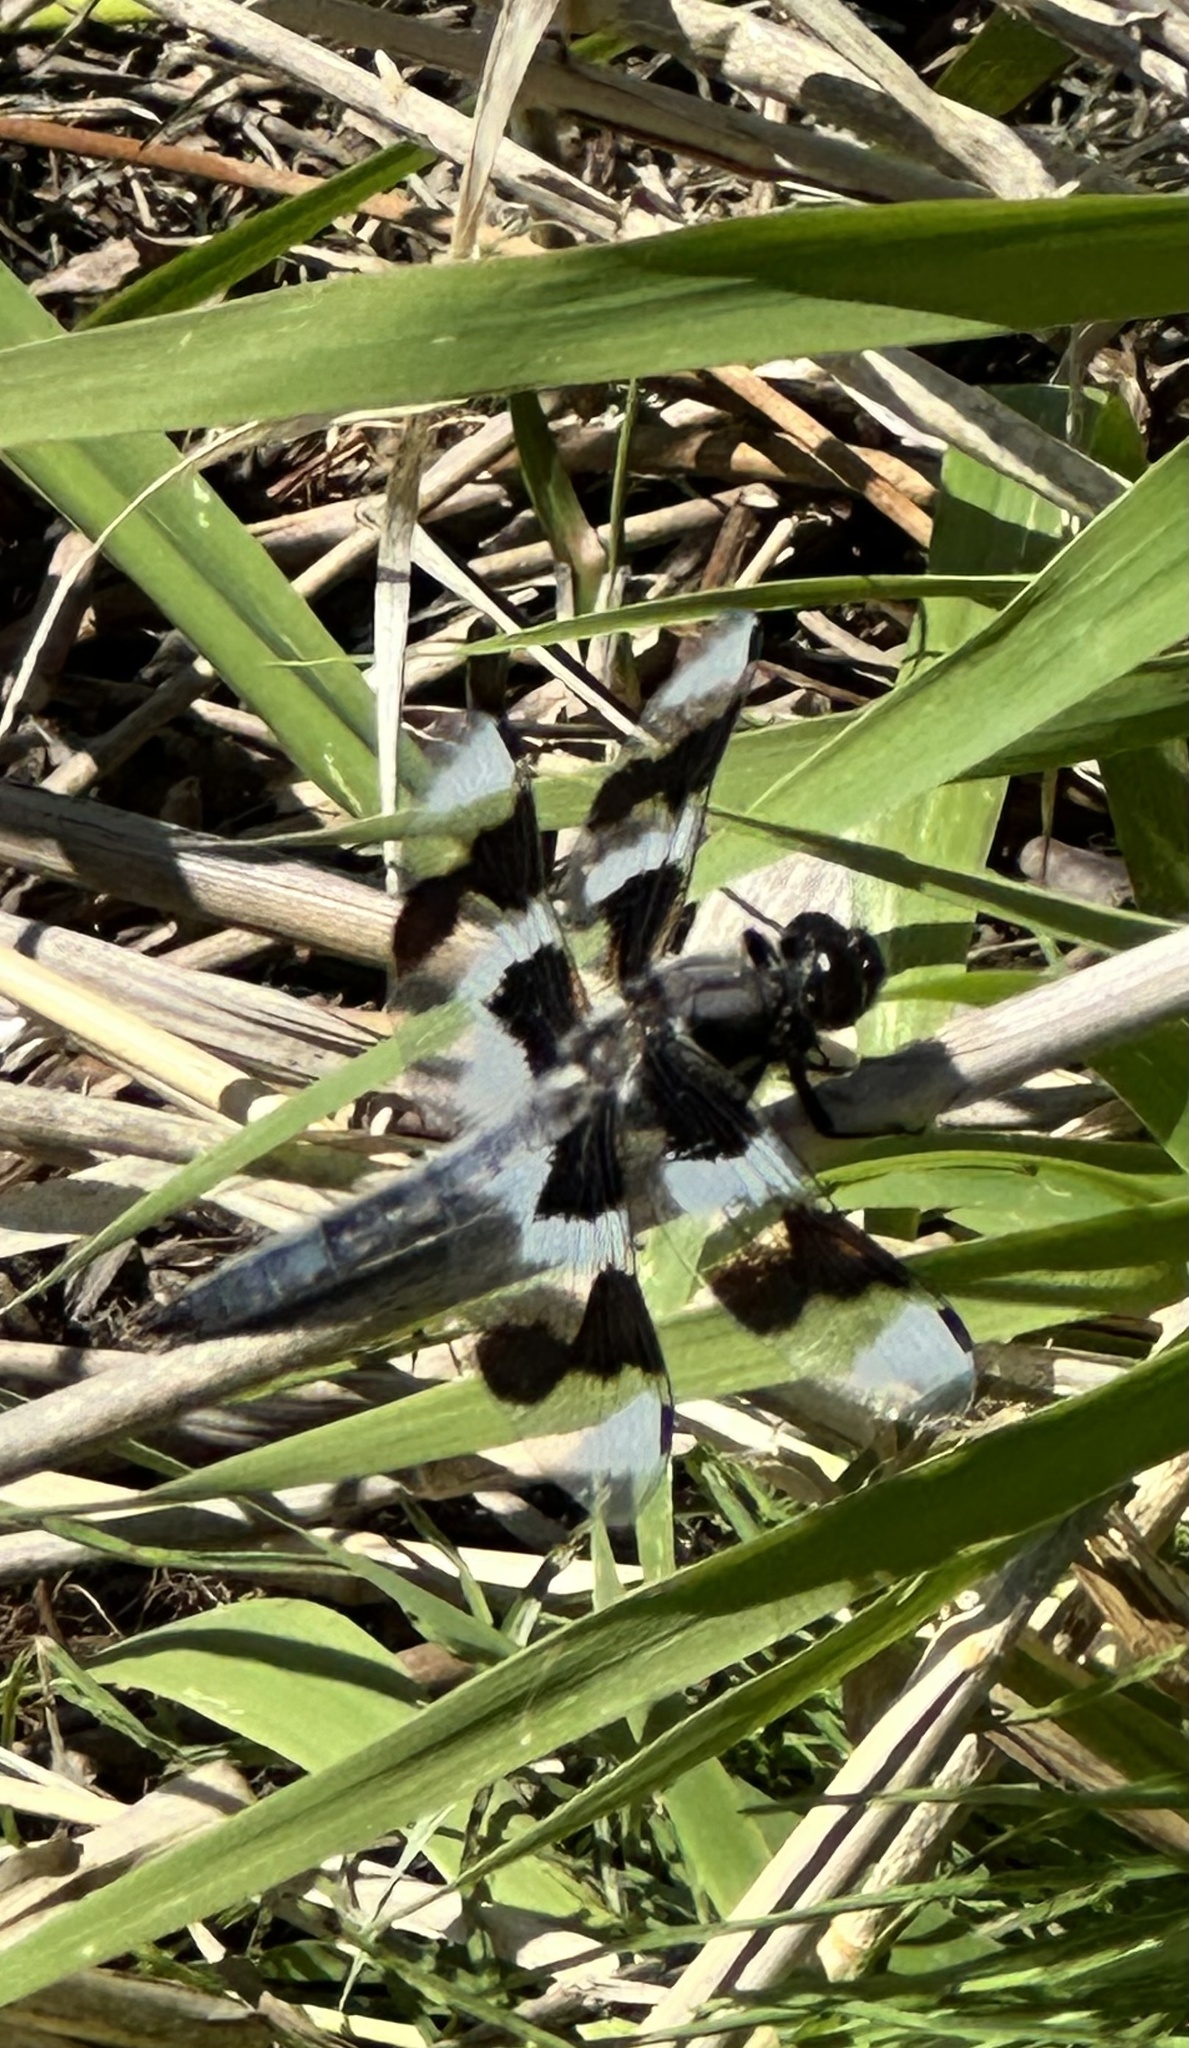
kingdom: Animalia
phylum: Arthropoda
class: Insecta
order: Odonata
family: Libellulidae
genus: Libellula
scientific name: Libellula forensis
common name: Eight-spotted skimmer
